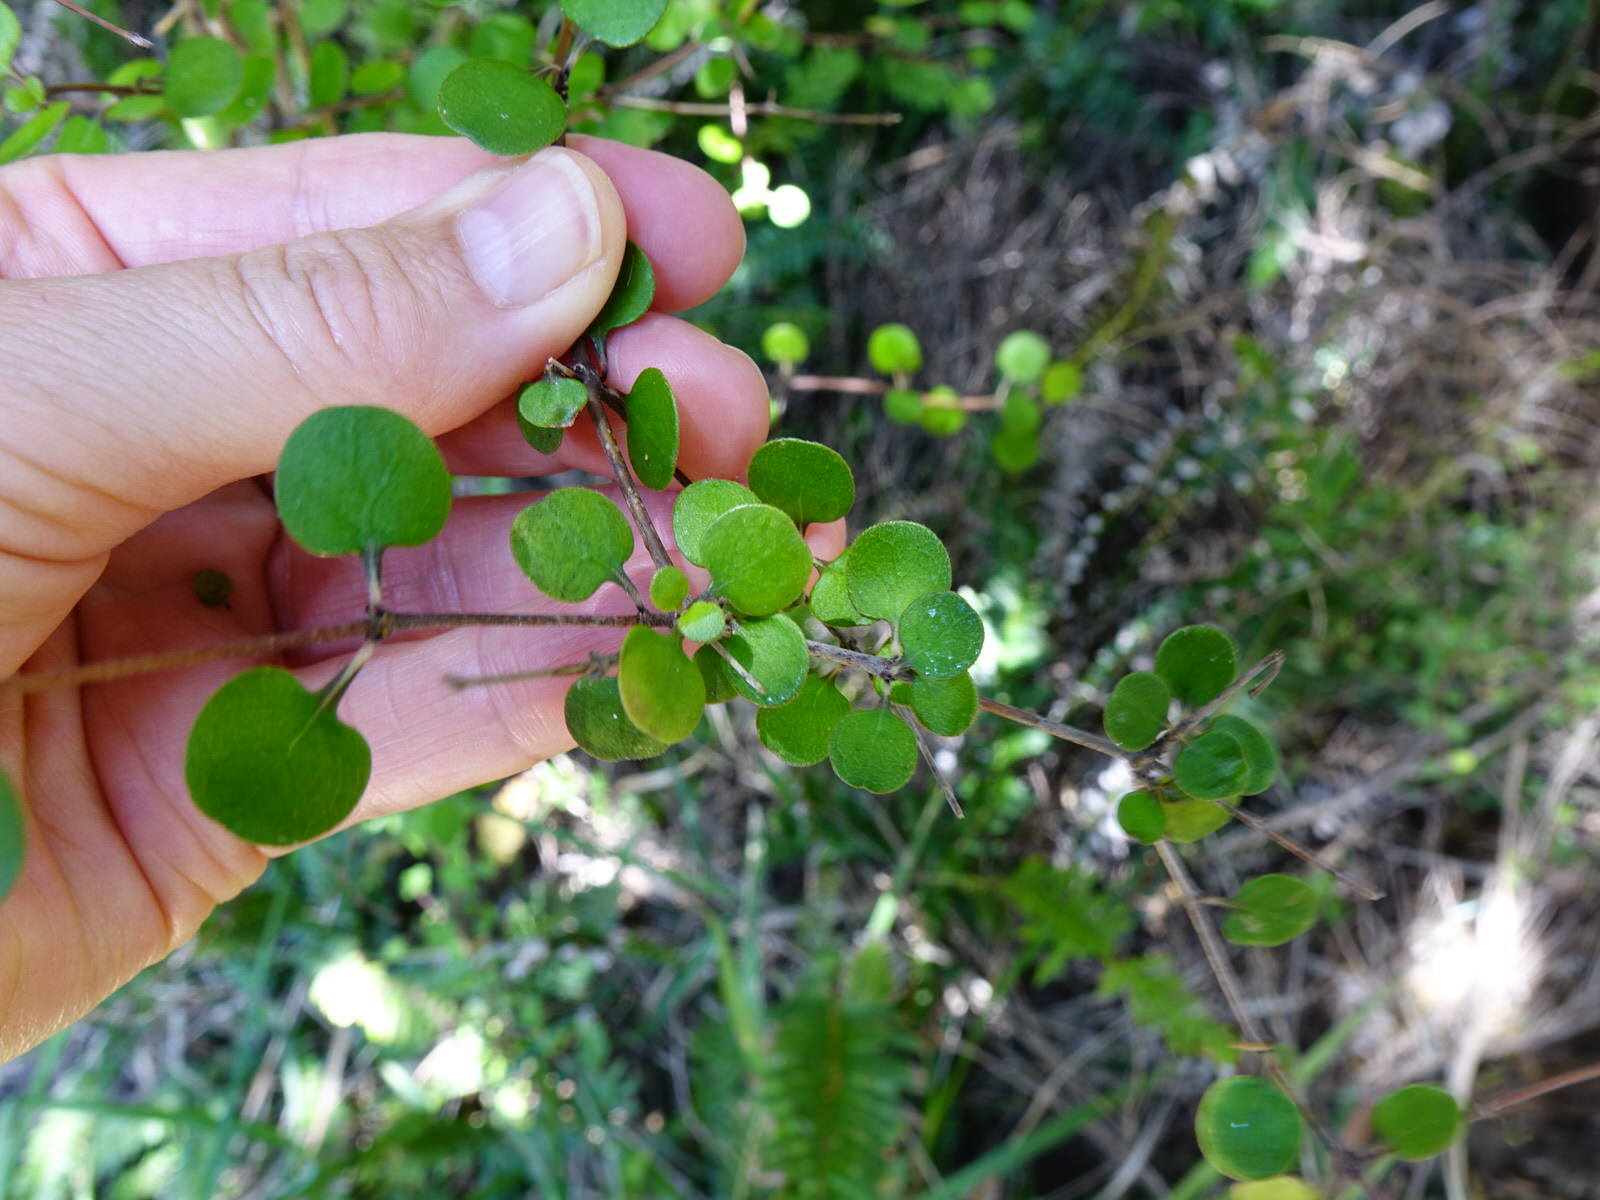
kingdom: Plantae
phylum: Tracheophyta
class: Magnoliopsida
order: Gentianales
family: Rubiaceae
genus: Coprosma
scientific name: Coprosma crassifolia
